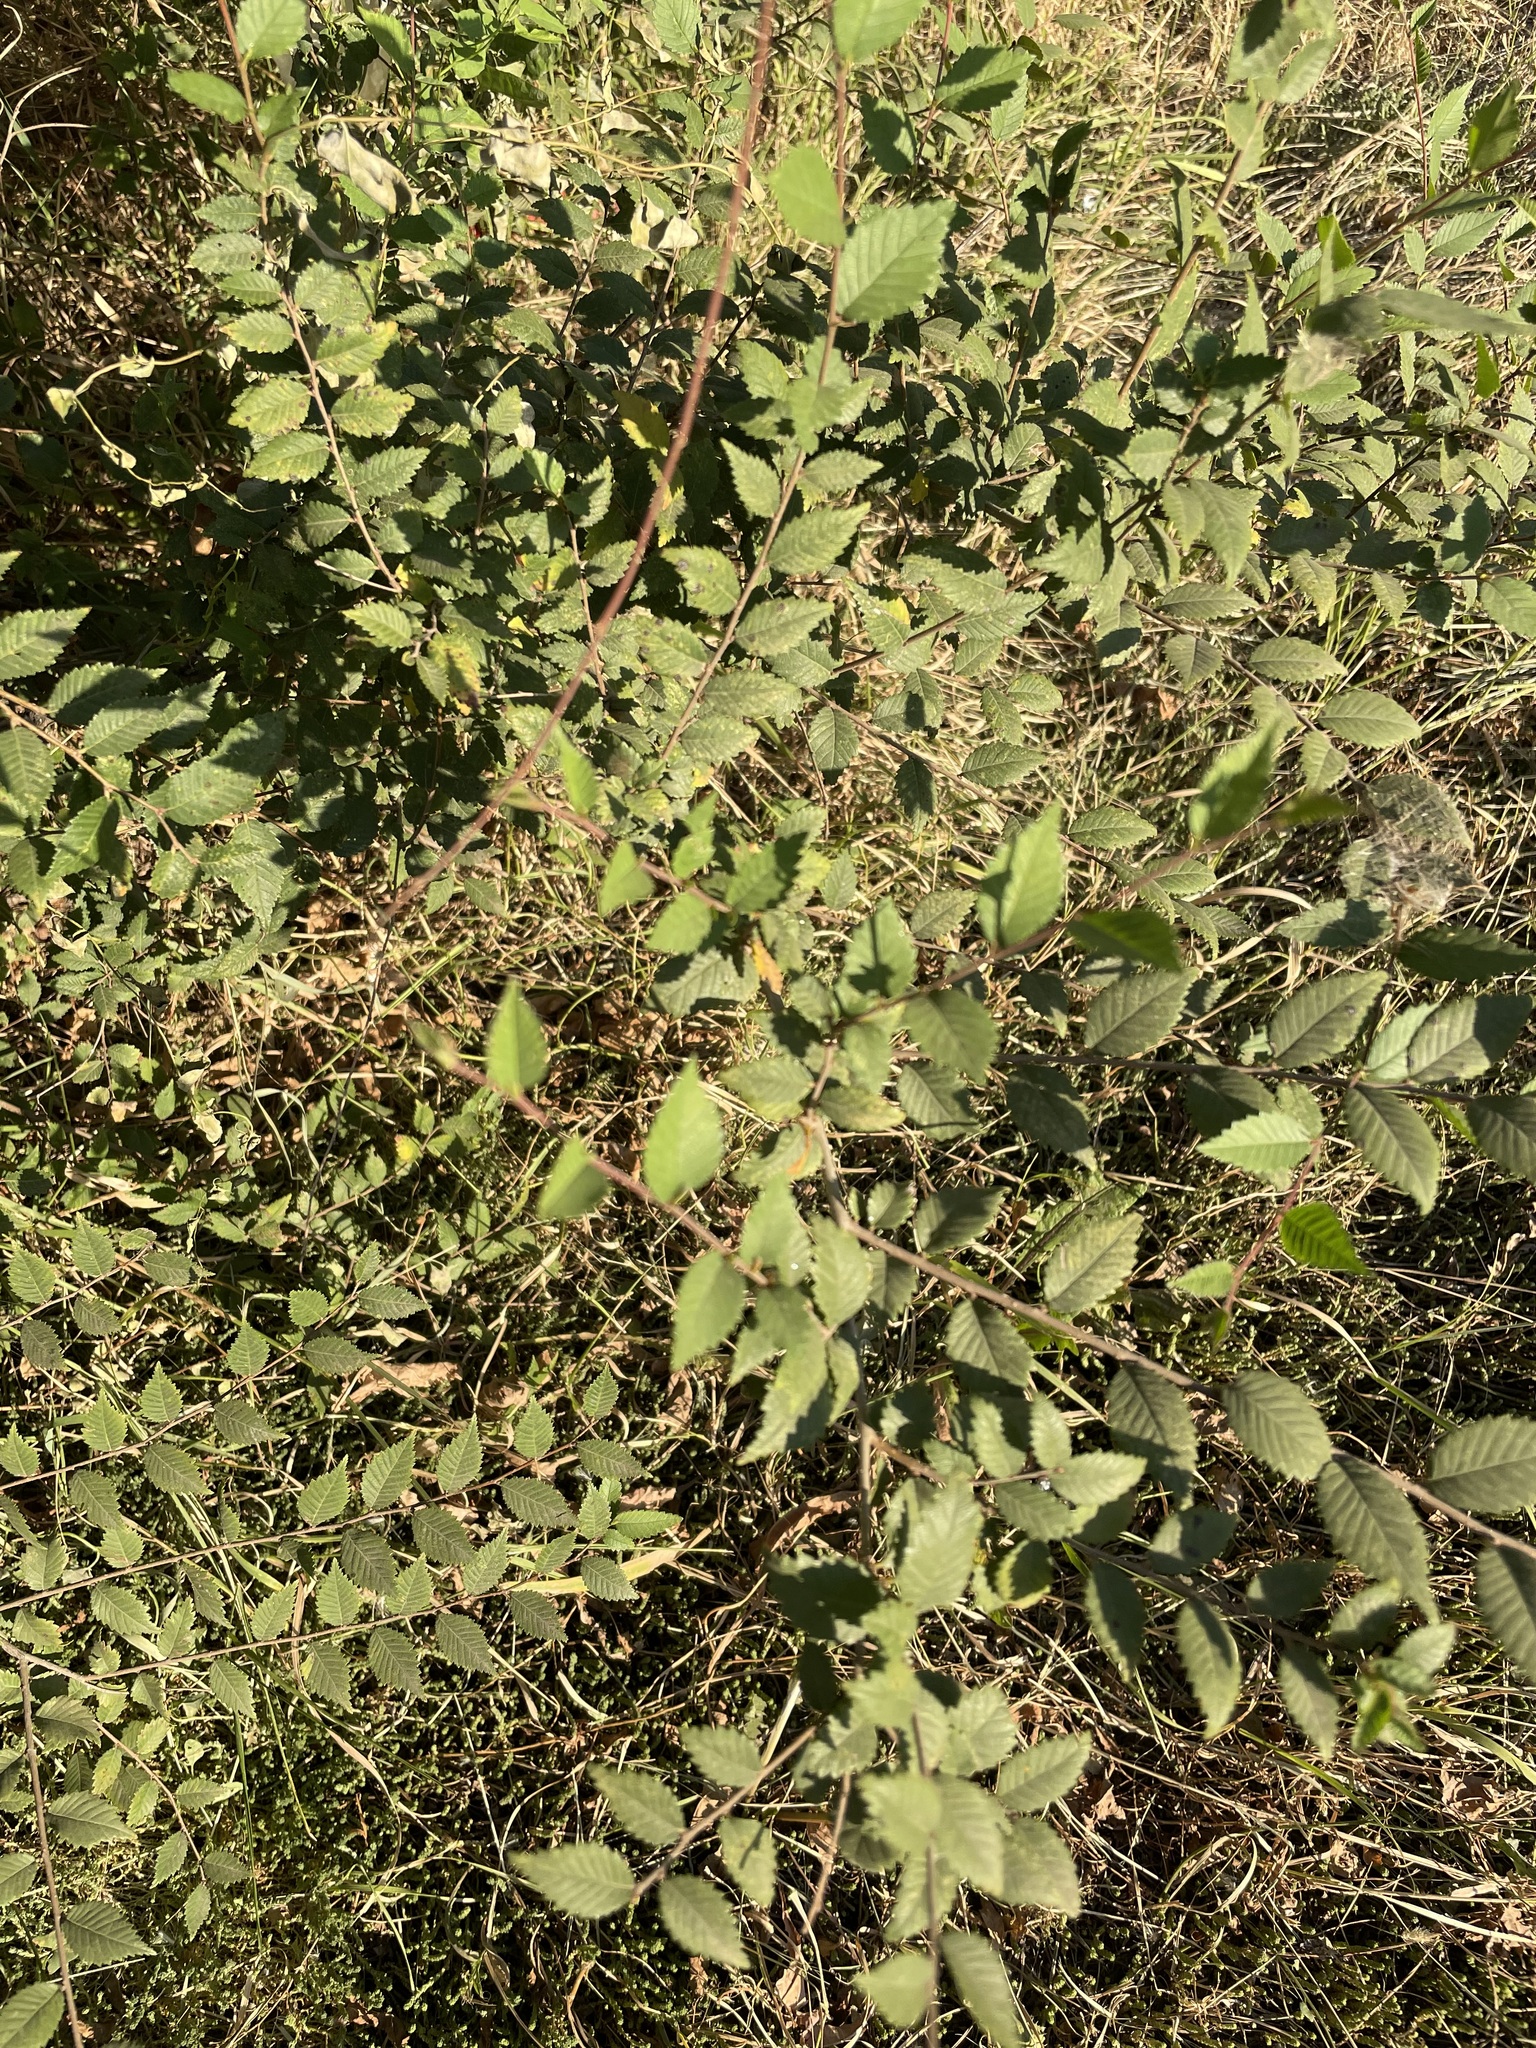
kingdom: Plantae
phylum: Tracheophyta
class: Magnoliopsida
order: Rosales
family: Ulmaceae
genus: Ulmus
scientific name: Ulmus pumila
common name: Siberian elm
